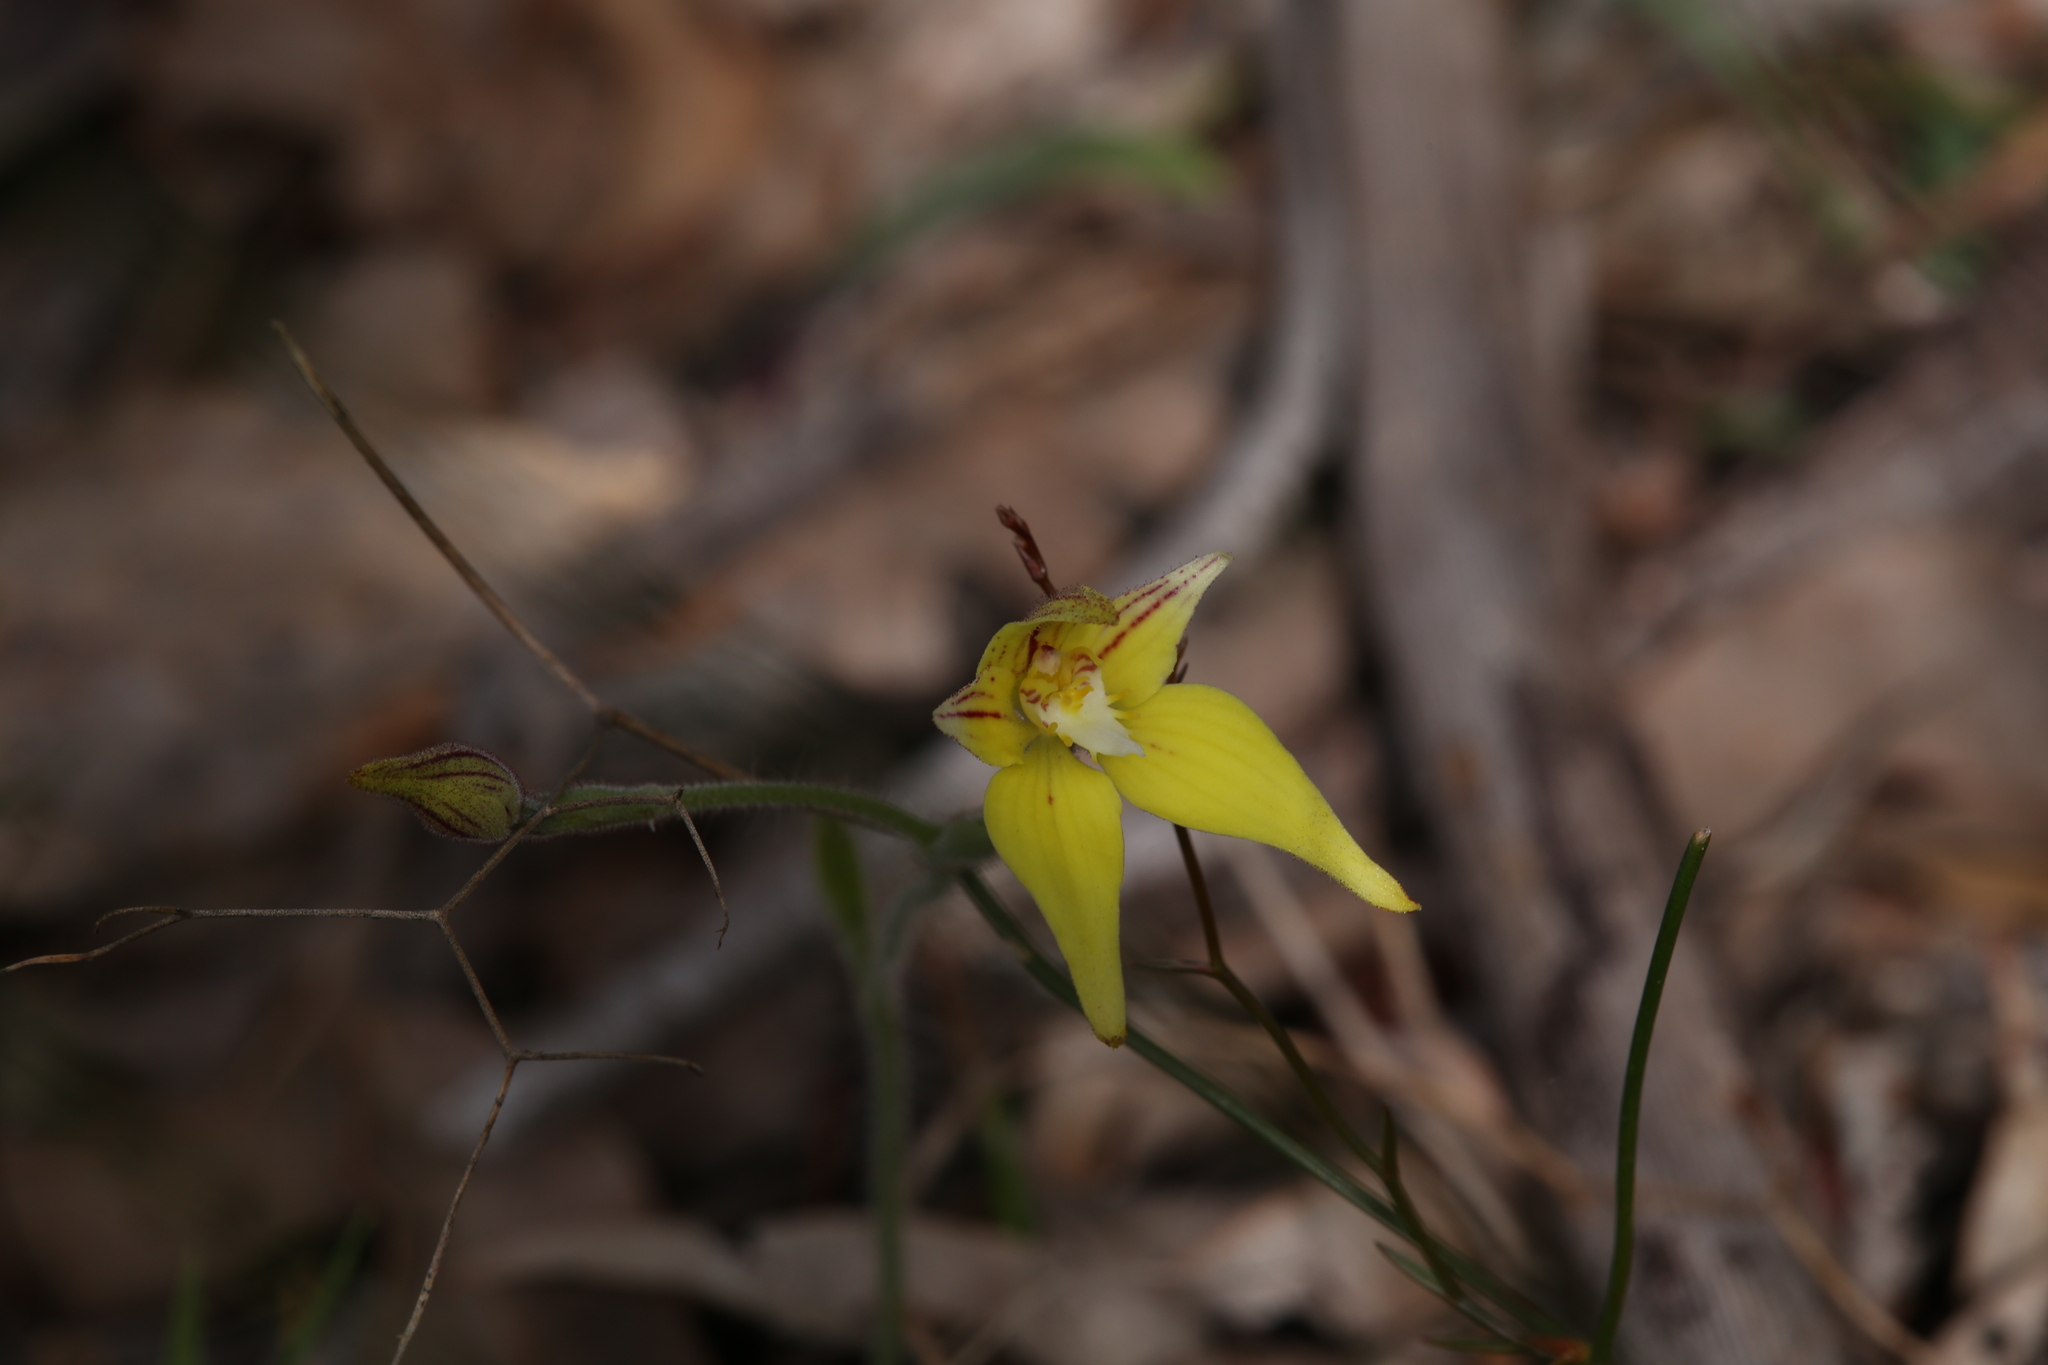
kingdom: Plantae
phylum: Tracheophyta
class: Liliopsida
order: Asparagales
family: Orchidaceae
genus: Caladenia
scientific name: Caladenia flava
